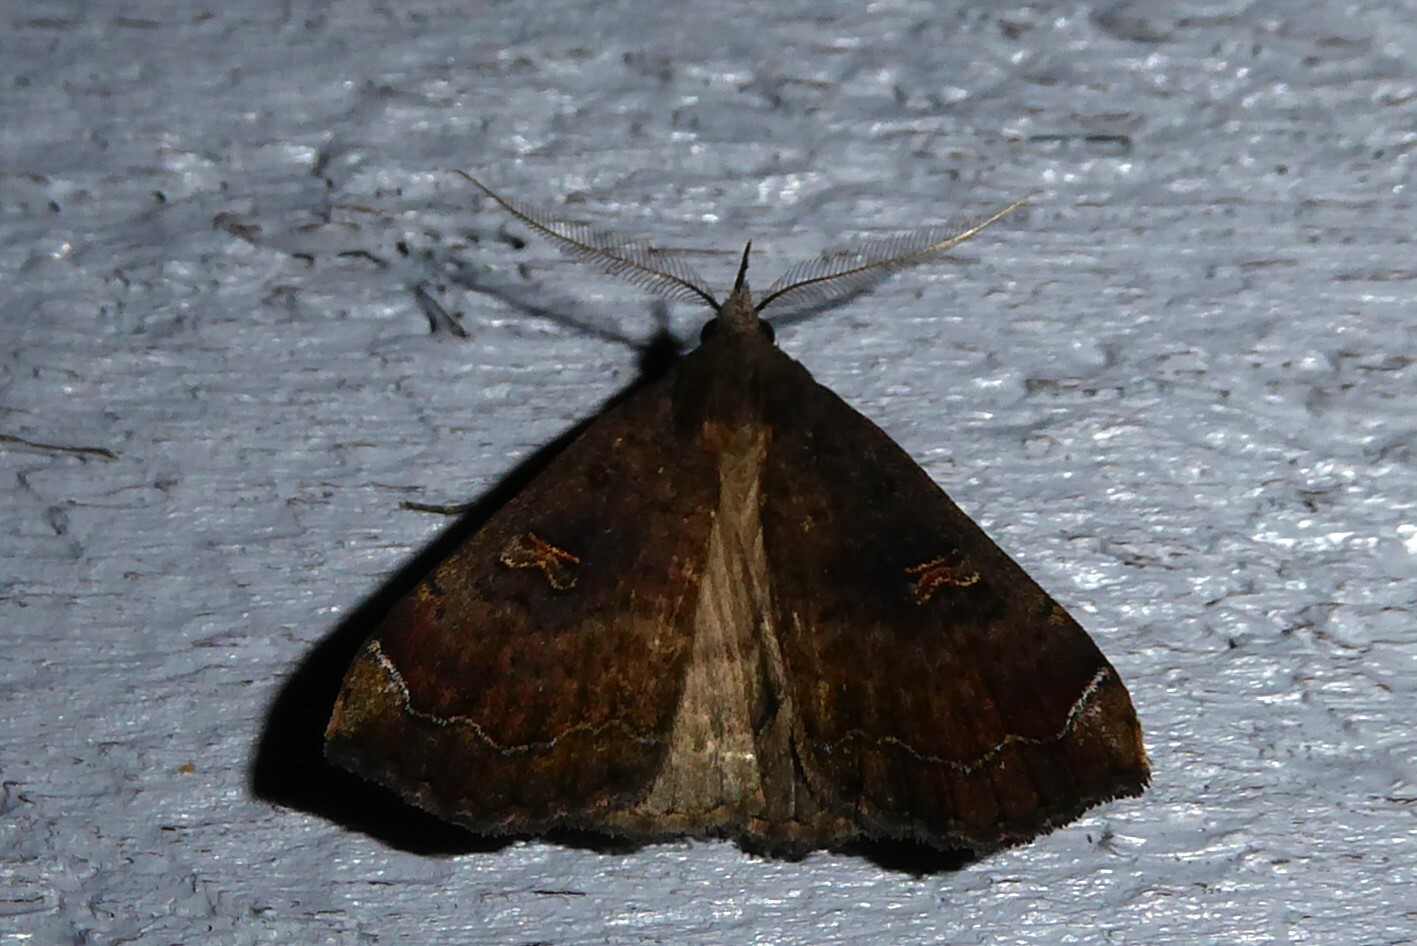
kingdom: Animalia
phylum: Arthropoda
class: Insecta
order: Lepidoptera
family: Erebidae
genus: Rhapsa
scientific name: Rhapsa scotosialis
